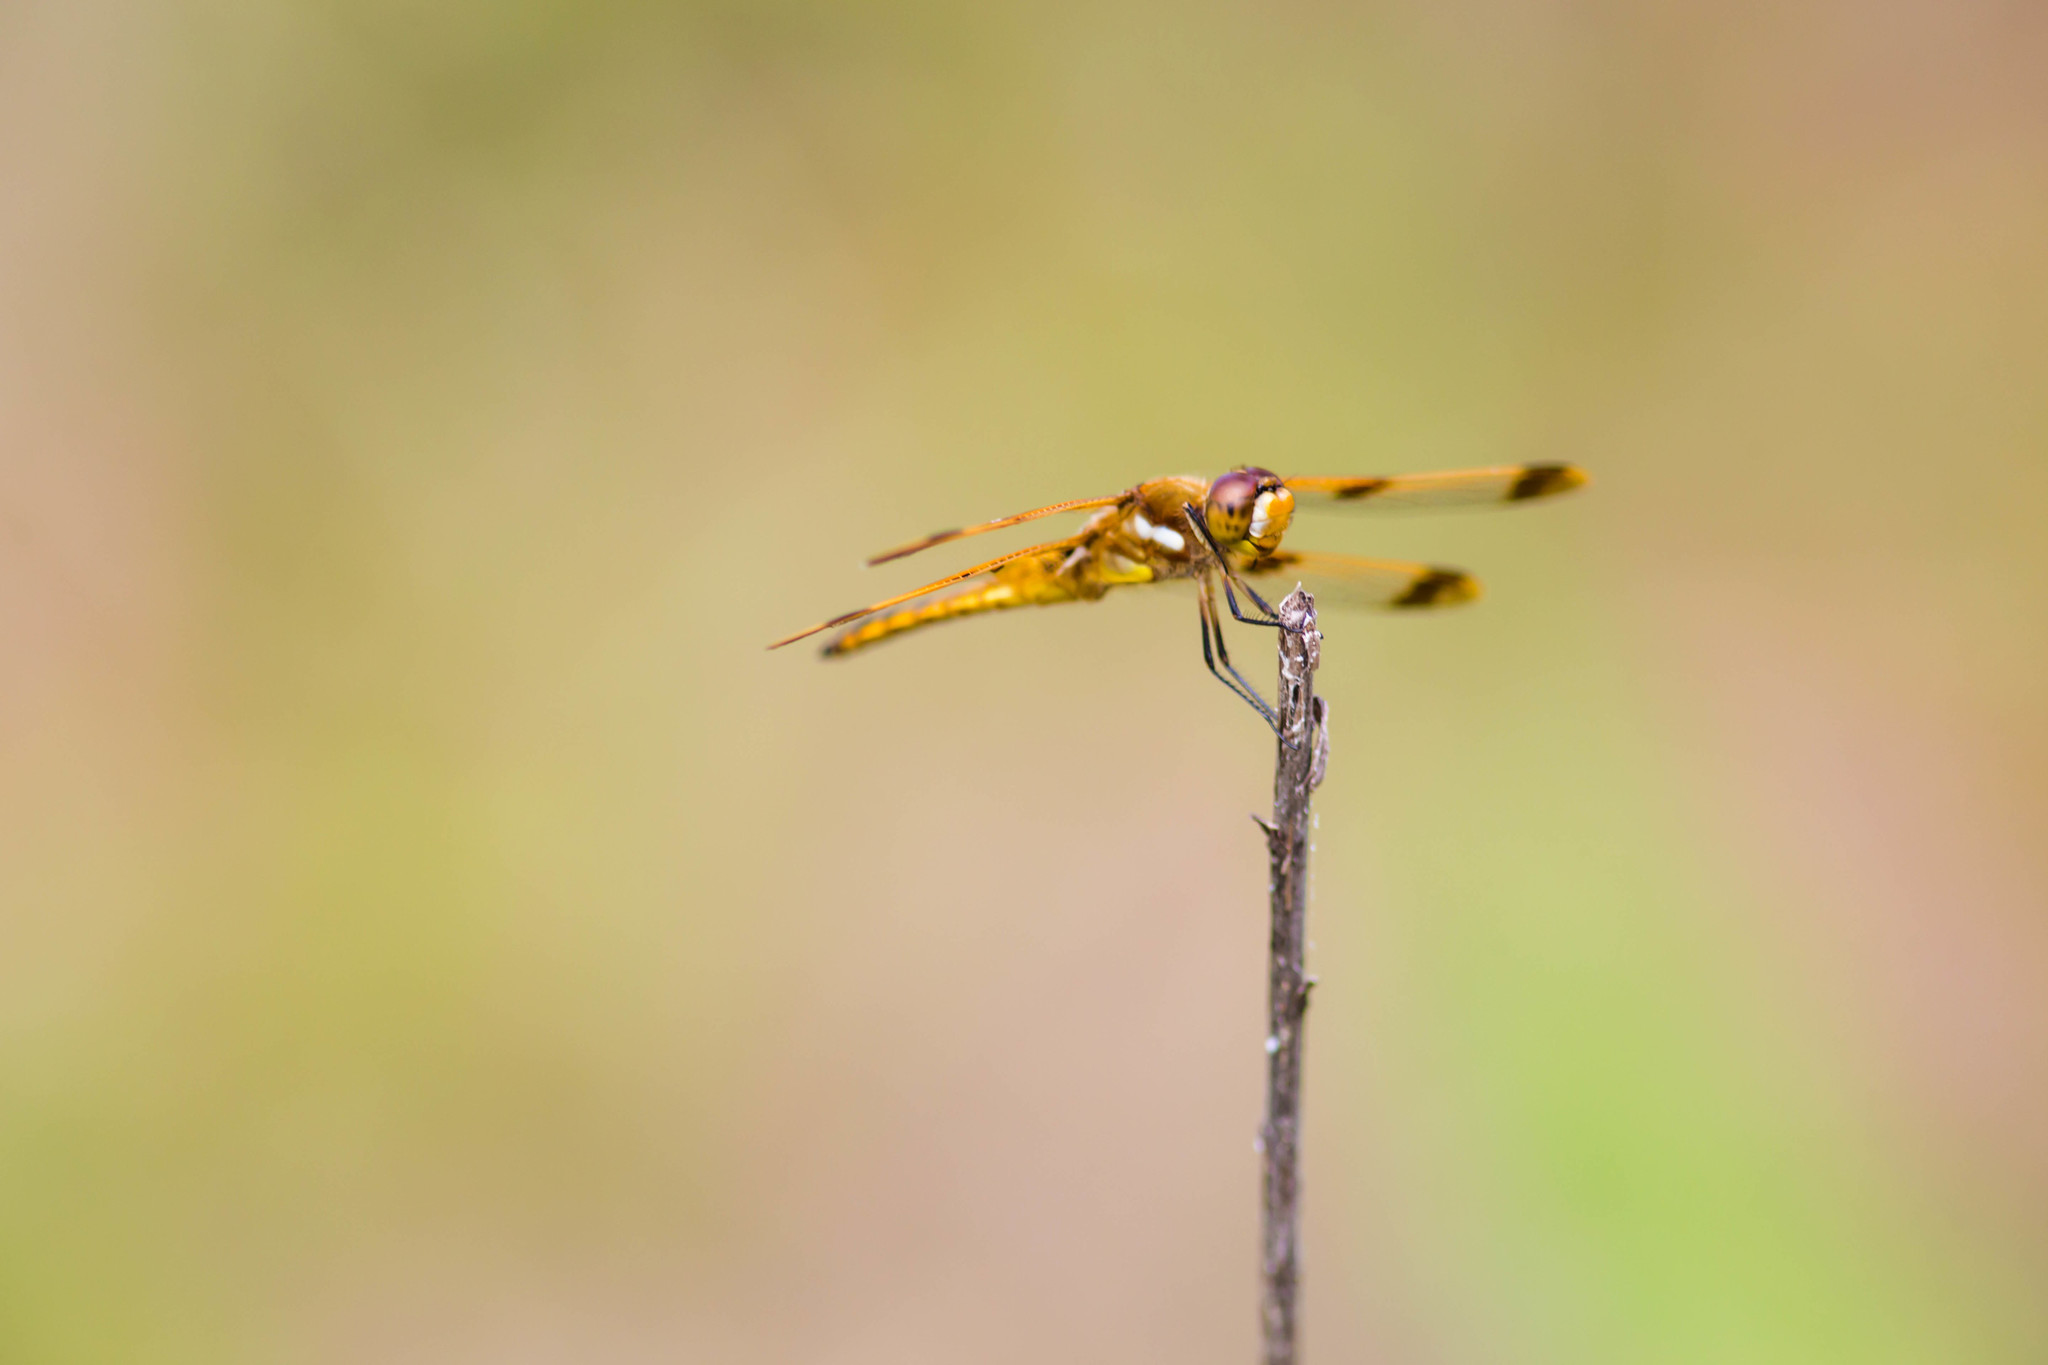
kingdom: Animalia
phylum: Arthropoda
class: Insecta
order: Odonata
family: Libellulidae
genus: Libellula
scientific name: Libellula semifasciata
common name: Painted skimmer
